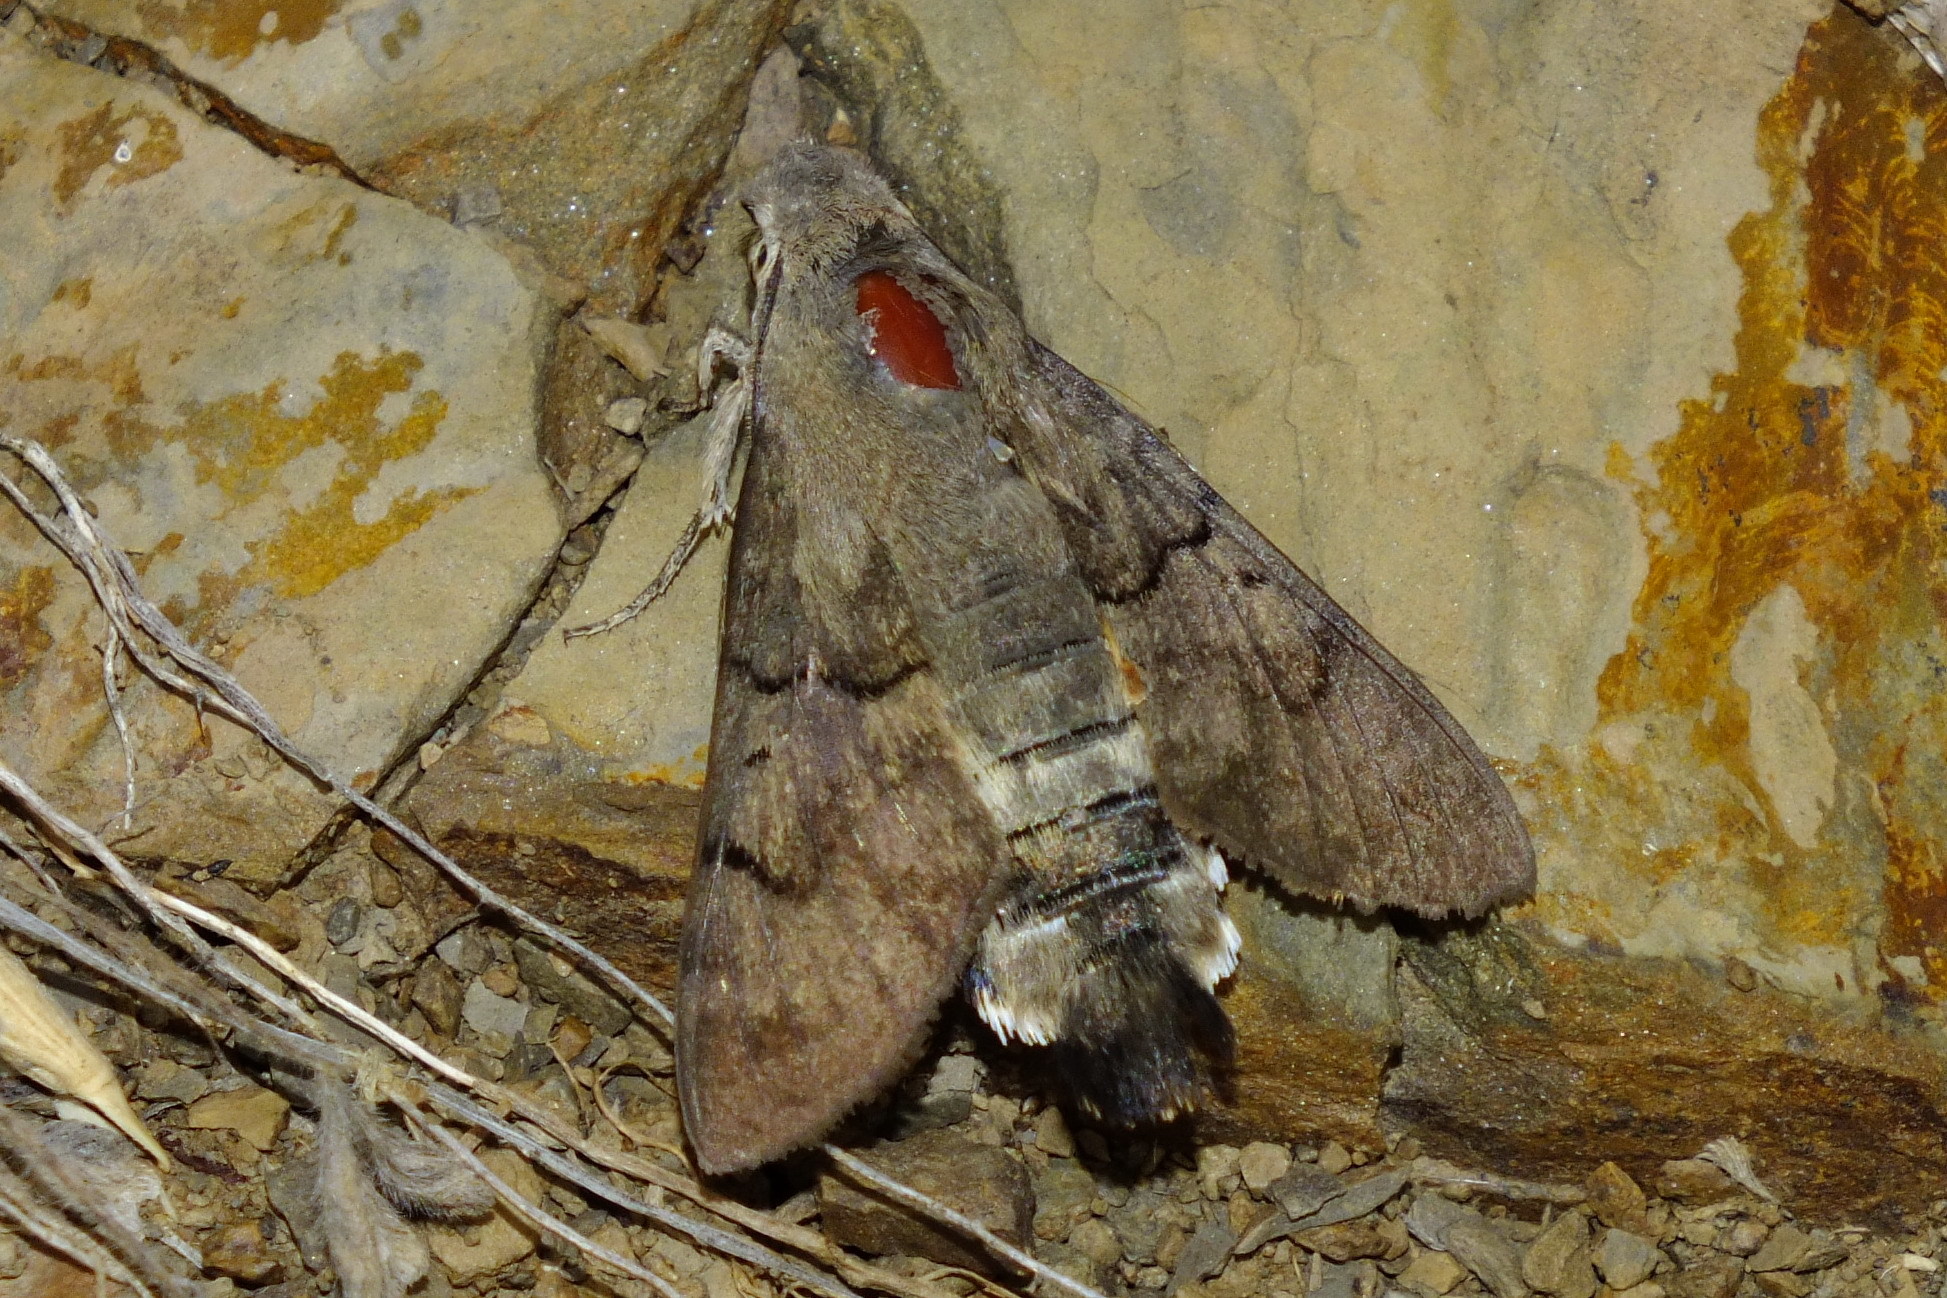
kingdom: Animalia
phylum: Arthropoda
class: Insecta
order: Lepidoptera
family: Sphingidae
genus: Macroglossum
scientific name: Macroglossum stellatarum
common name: Humming-bird hawk-moth
